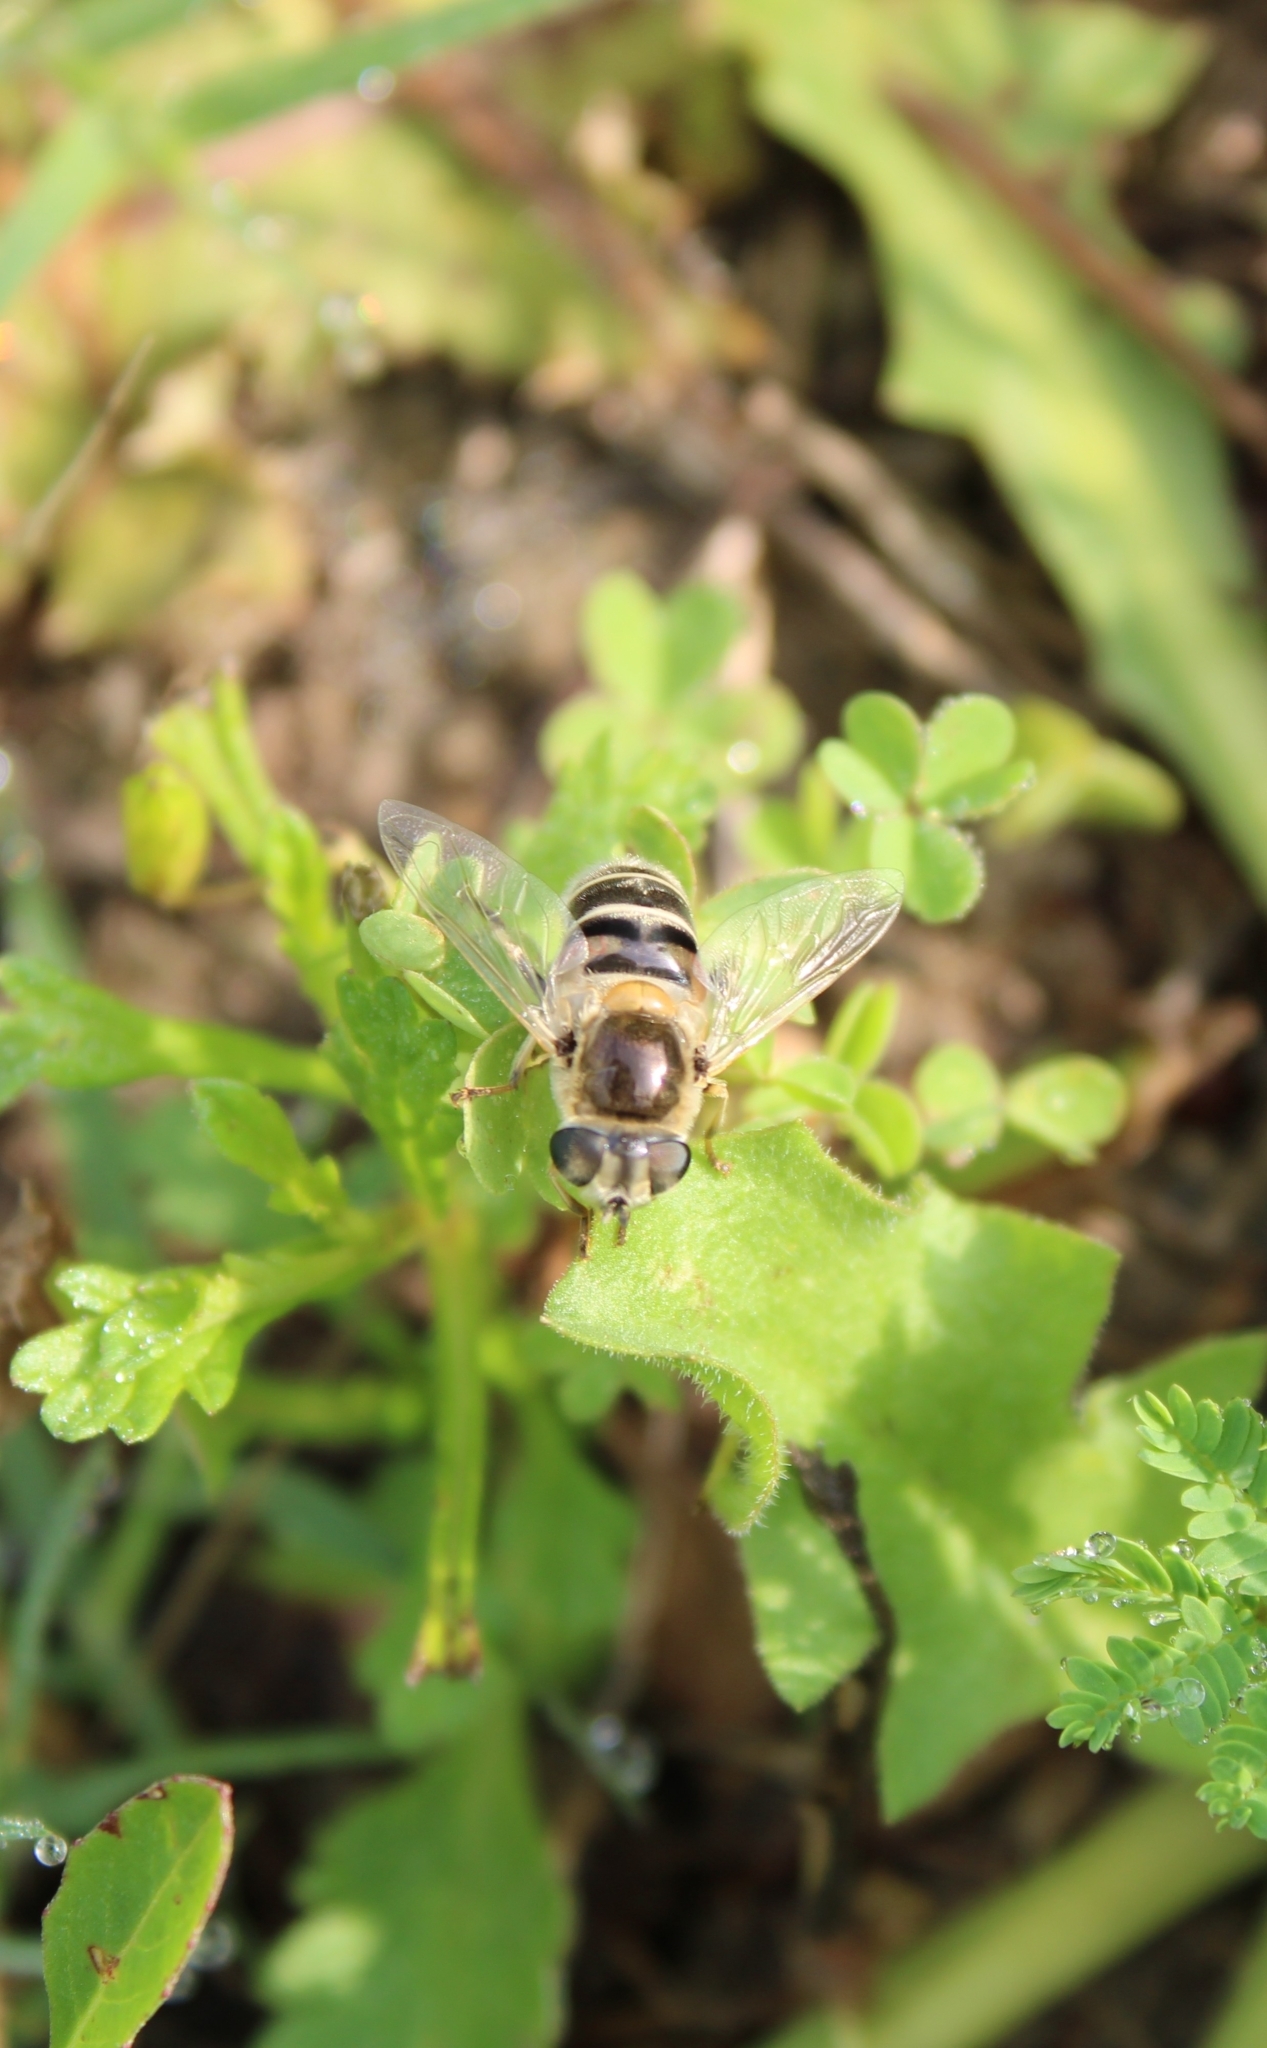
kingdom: Animalia
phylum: Arthropoda
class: Insecta
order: Diptera
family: Syrphidae
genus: Eristalis
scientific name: Eristalis stipator
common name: Yellow-shouldered drone fly
